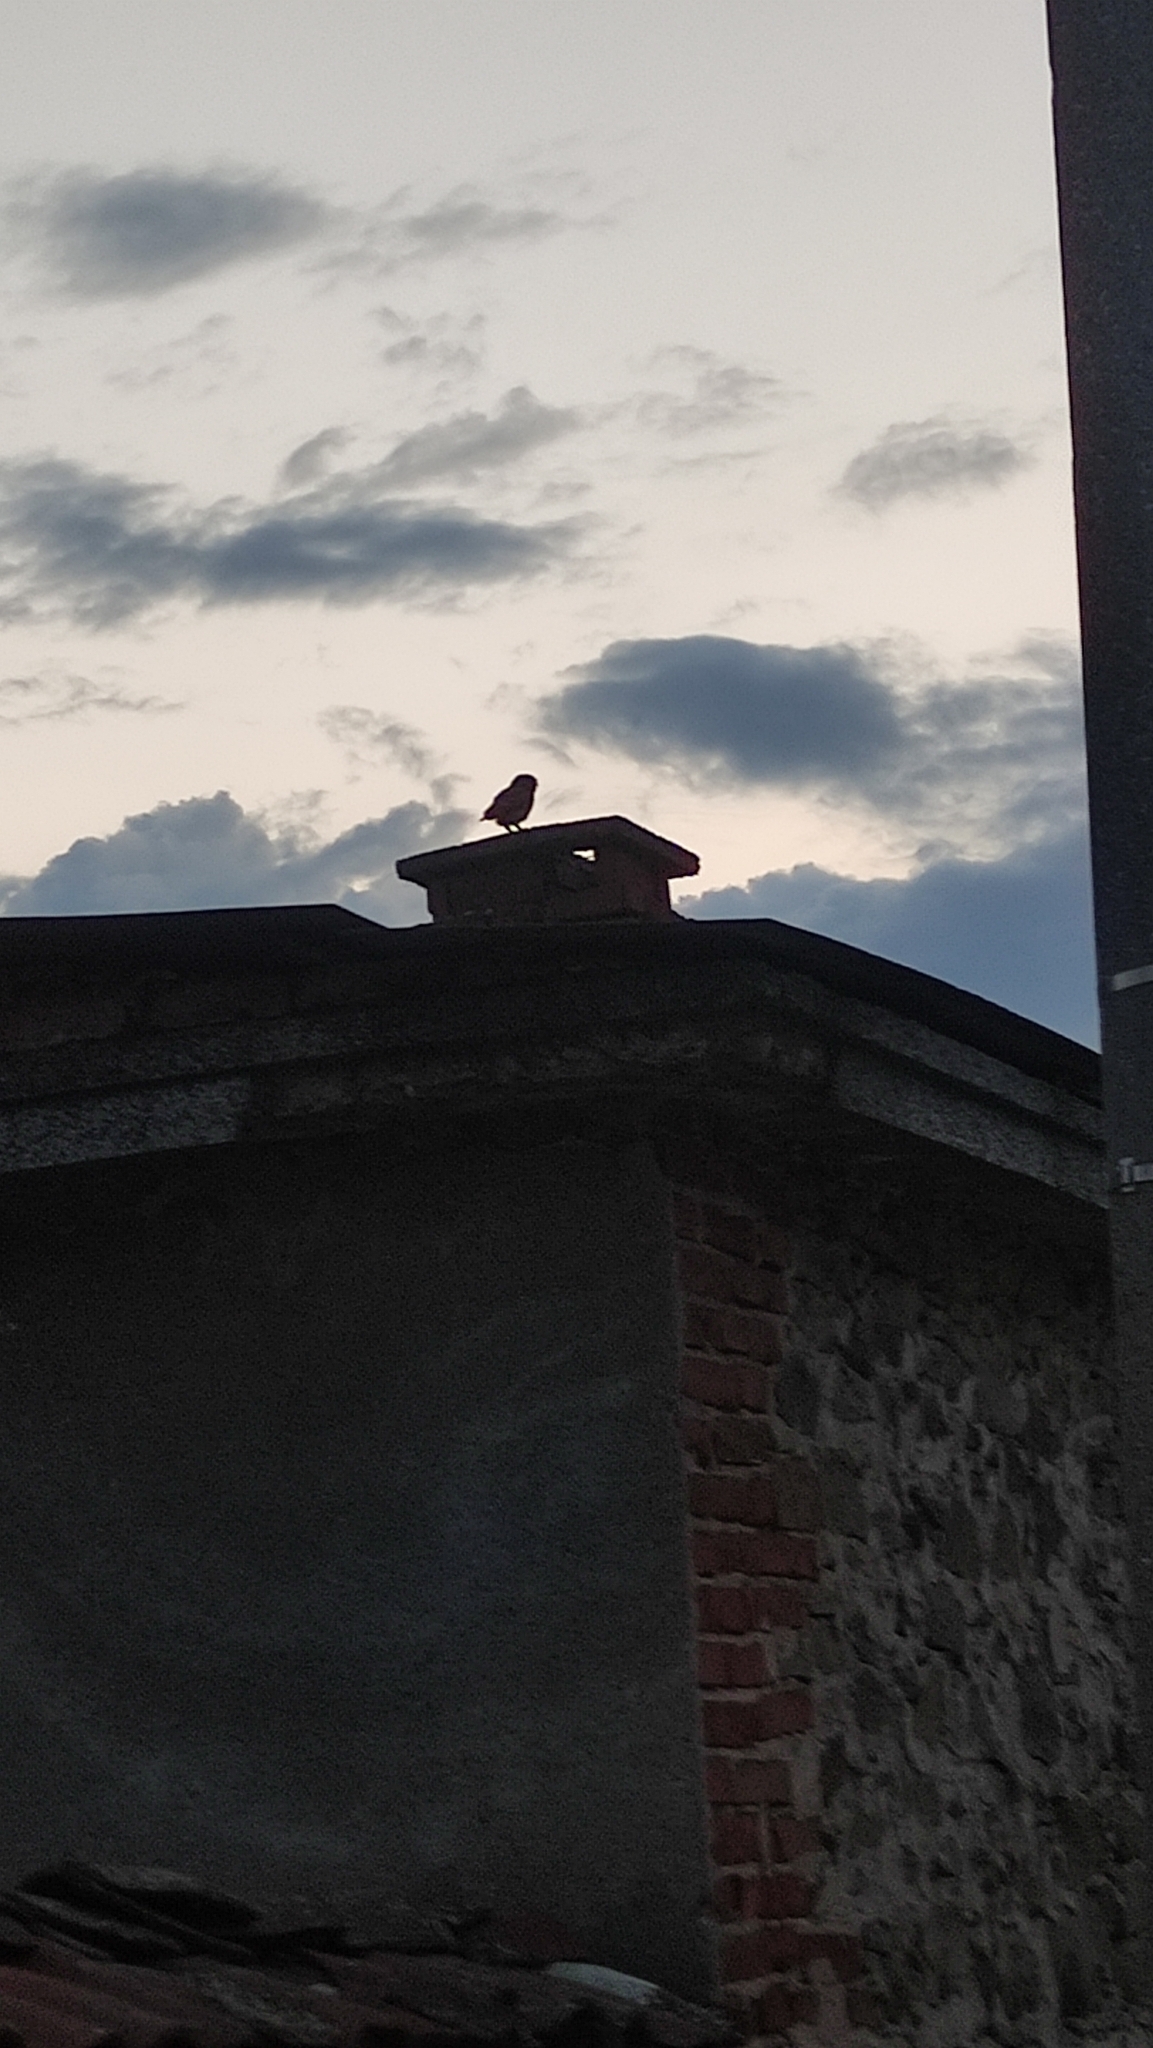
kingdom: Animalia
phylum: Chordata
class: Aves
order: Strigiformes
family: Strigidae
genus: Athene
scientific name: Athene noctua
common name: Little owl
